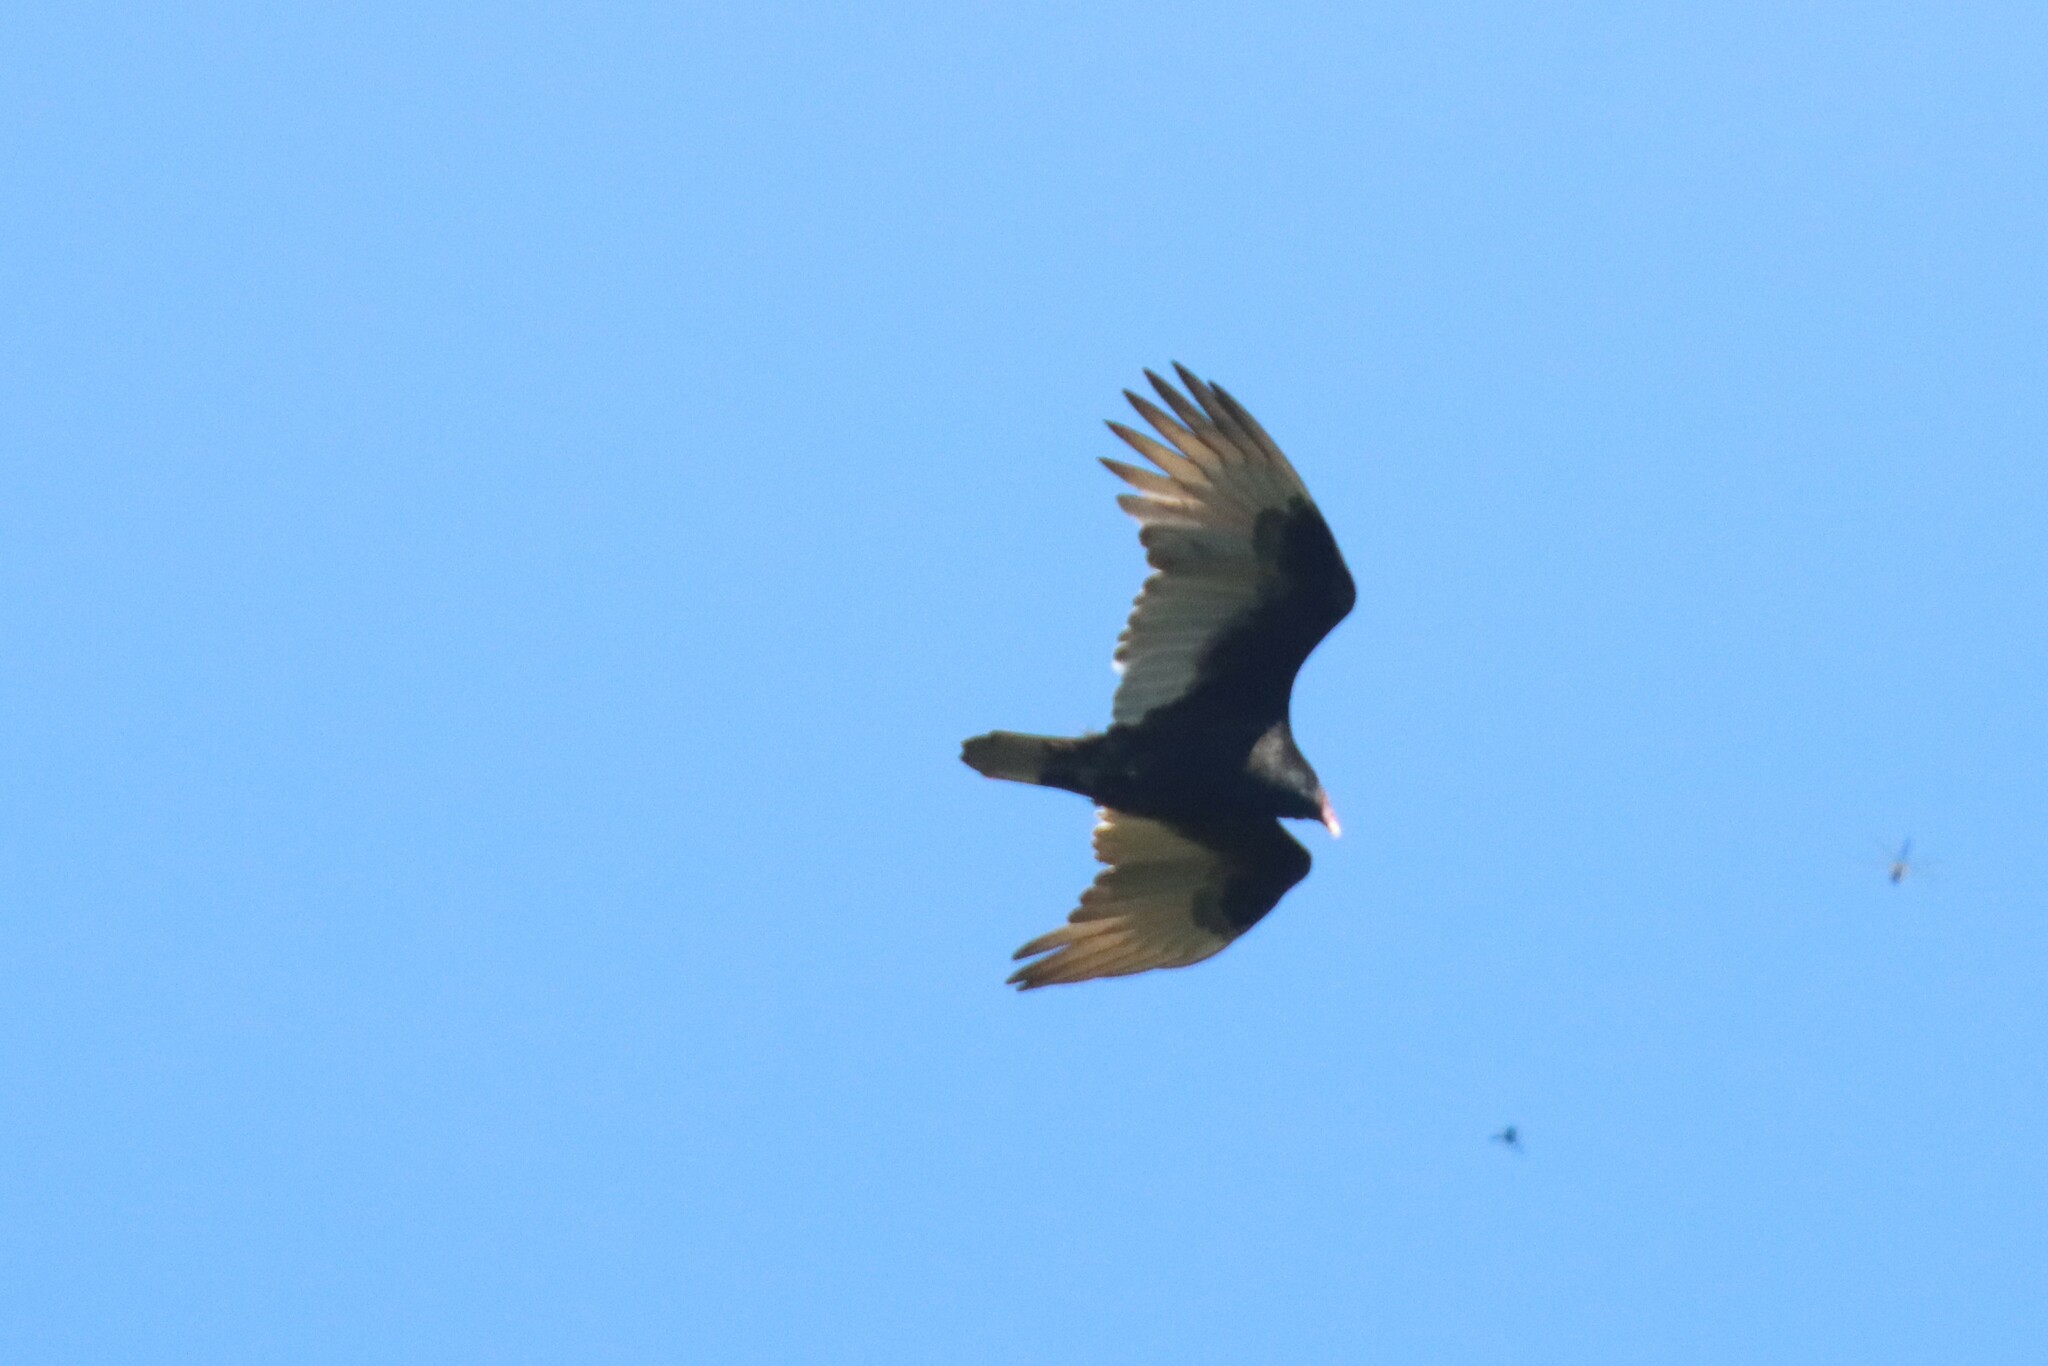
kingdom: Animalia
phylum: Chordata
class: Aves
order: Accipitriformes
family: Cathartidae
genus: Cathartes
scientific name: Cathartes aura
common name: Turkey vulture
